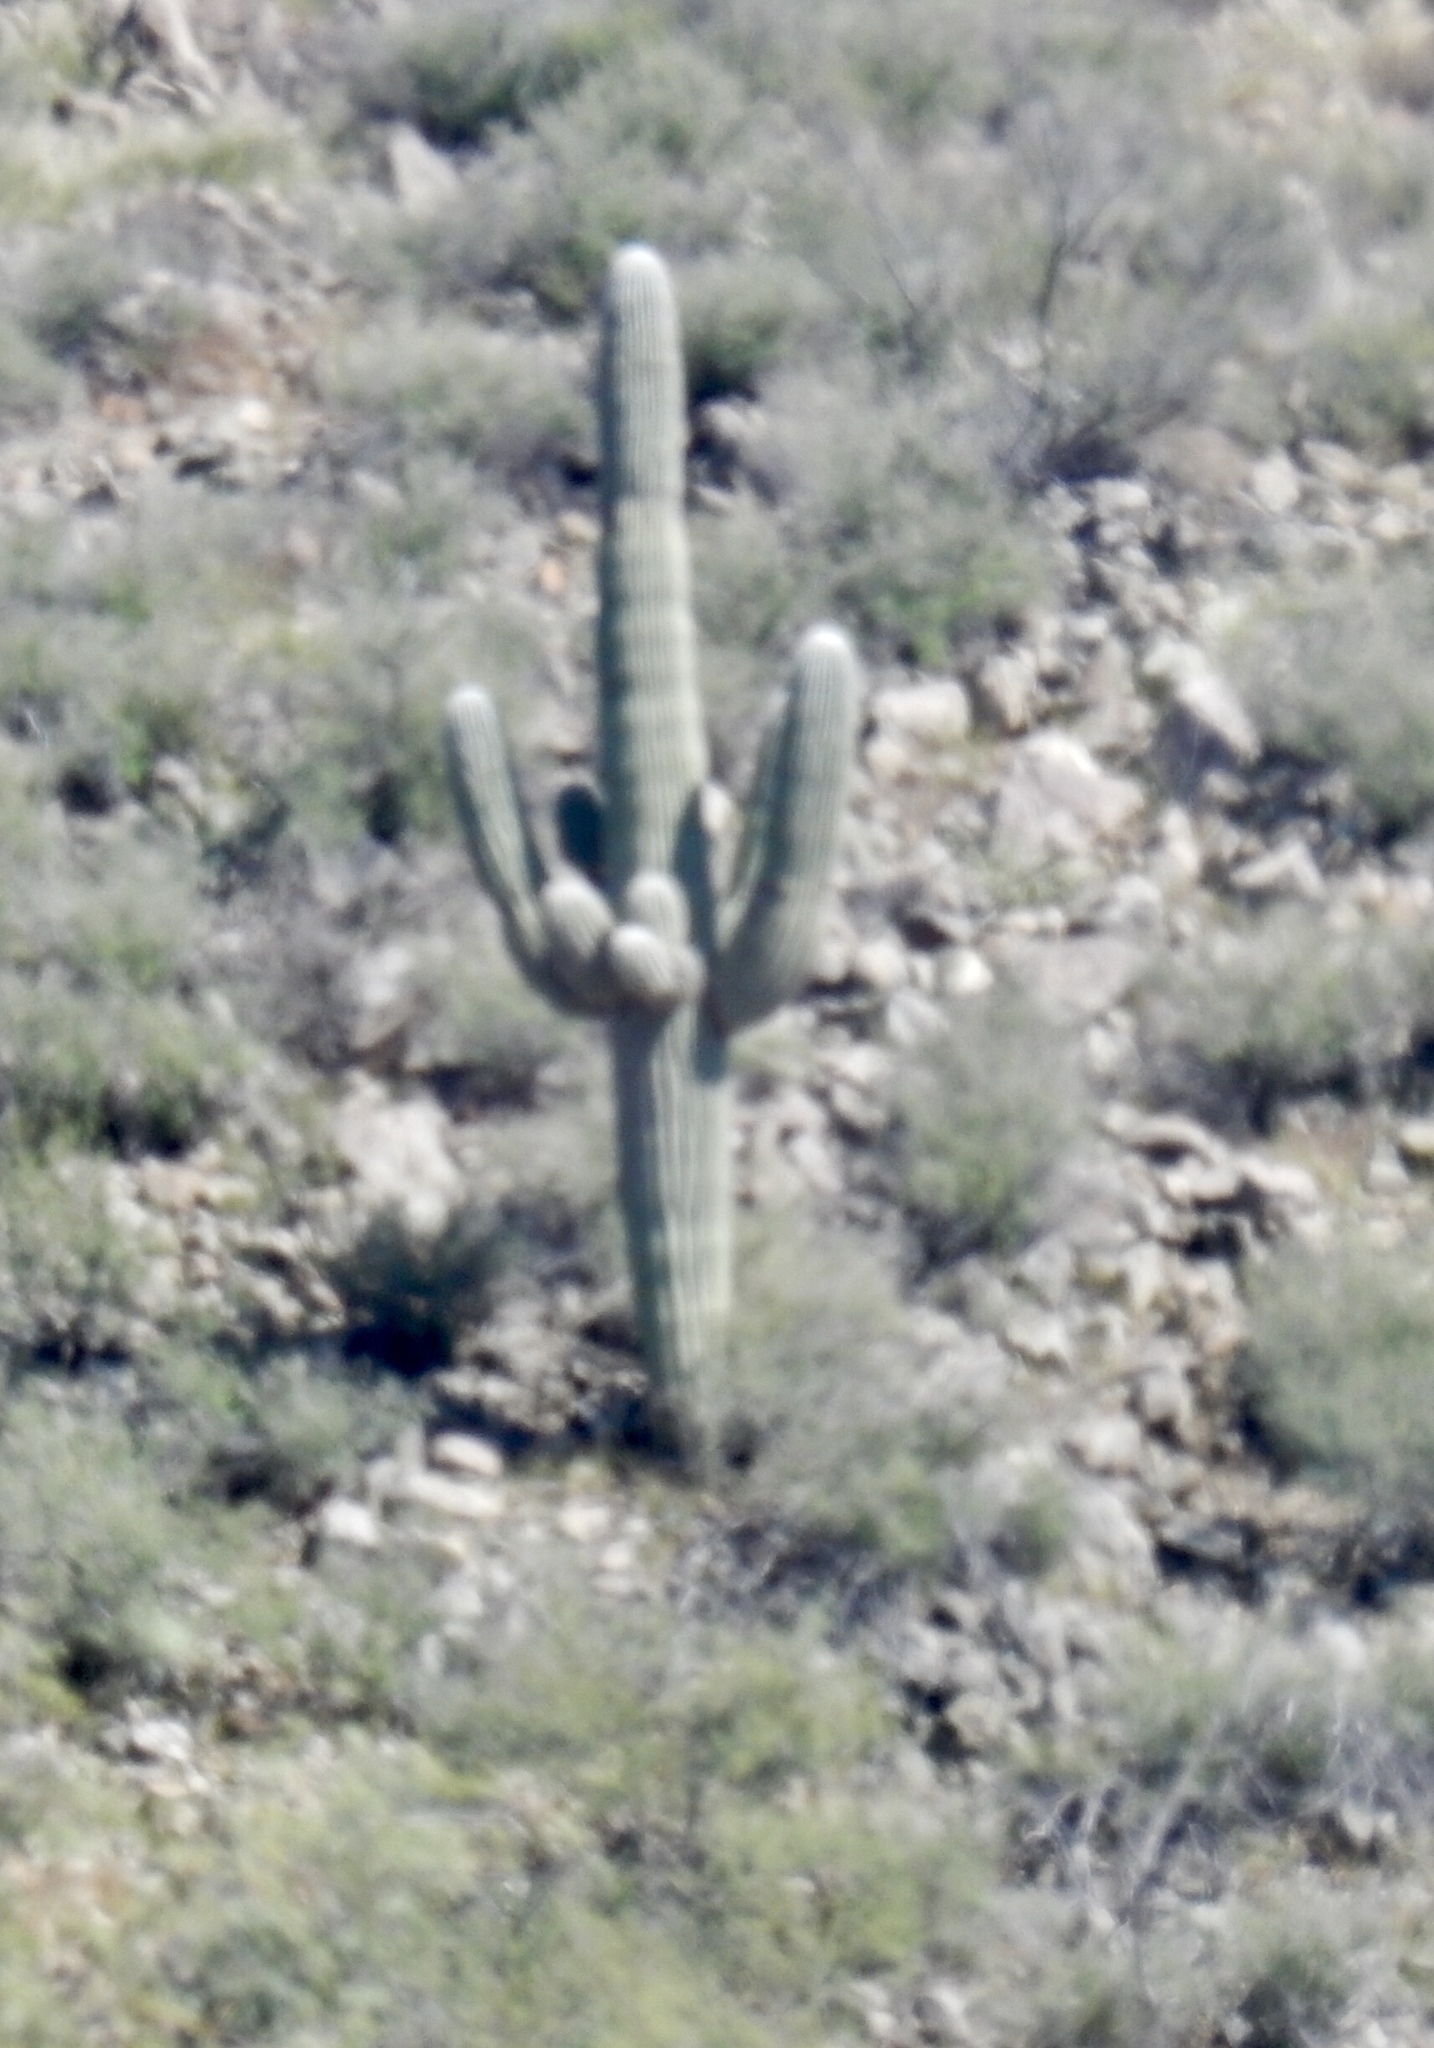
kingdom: Plantae
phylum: Tracheophyta
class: Magnoliopsida
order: Caryophyllales
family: Cactaceae
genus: Carnegiea
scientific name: Carnegiea gigantea
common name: Saguaro
